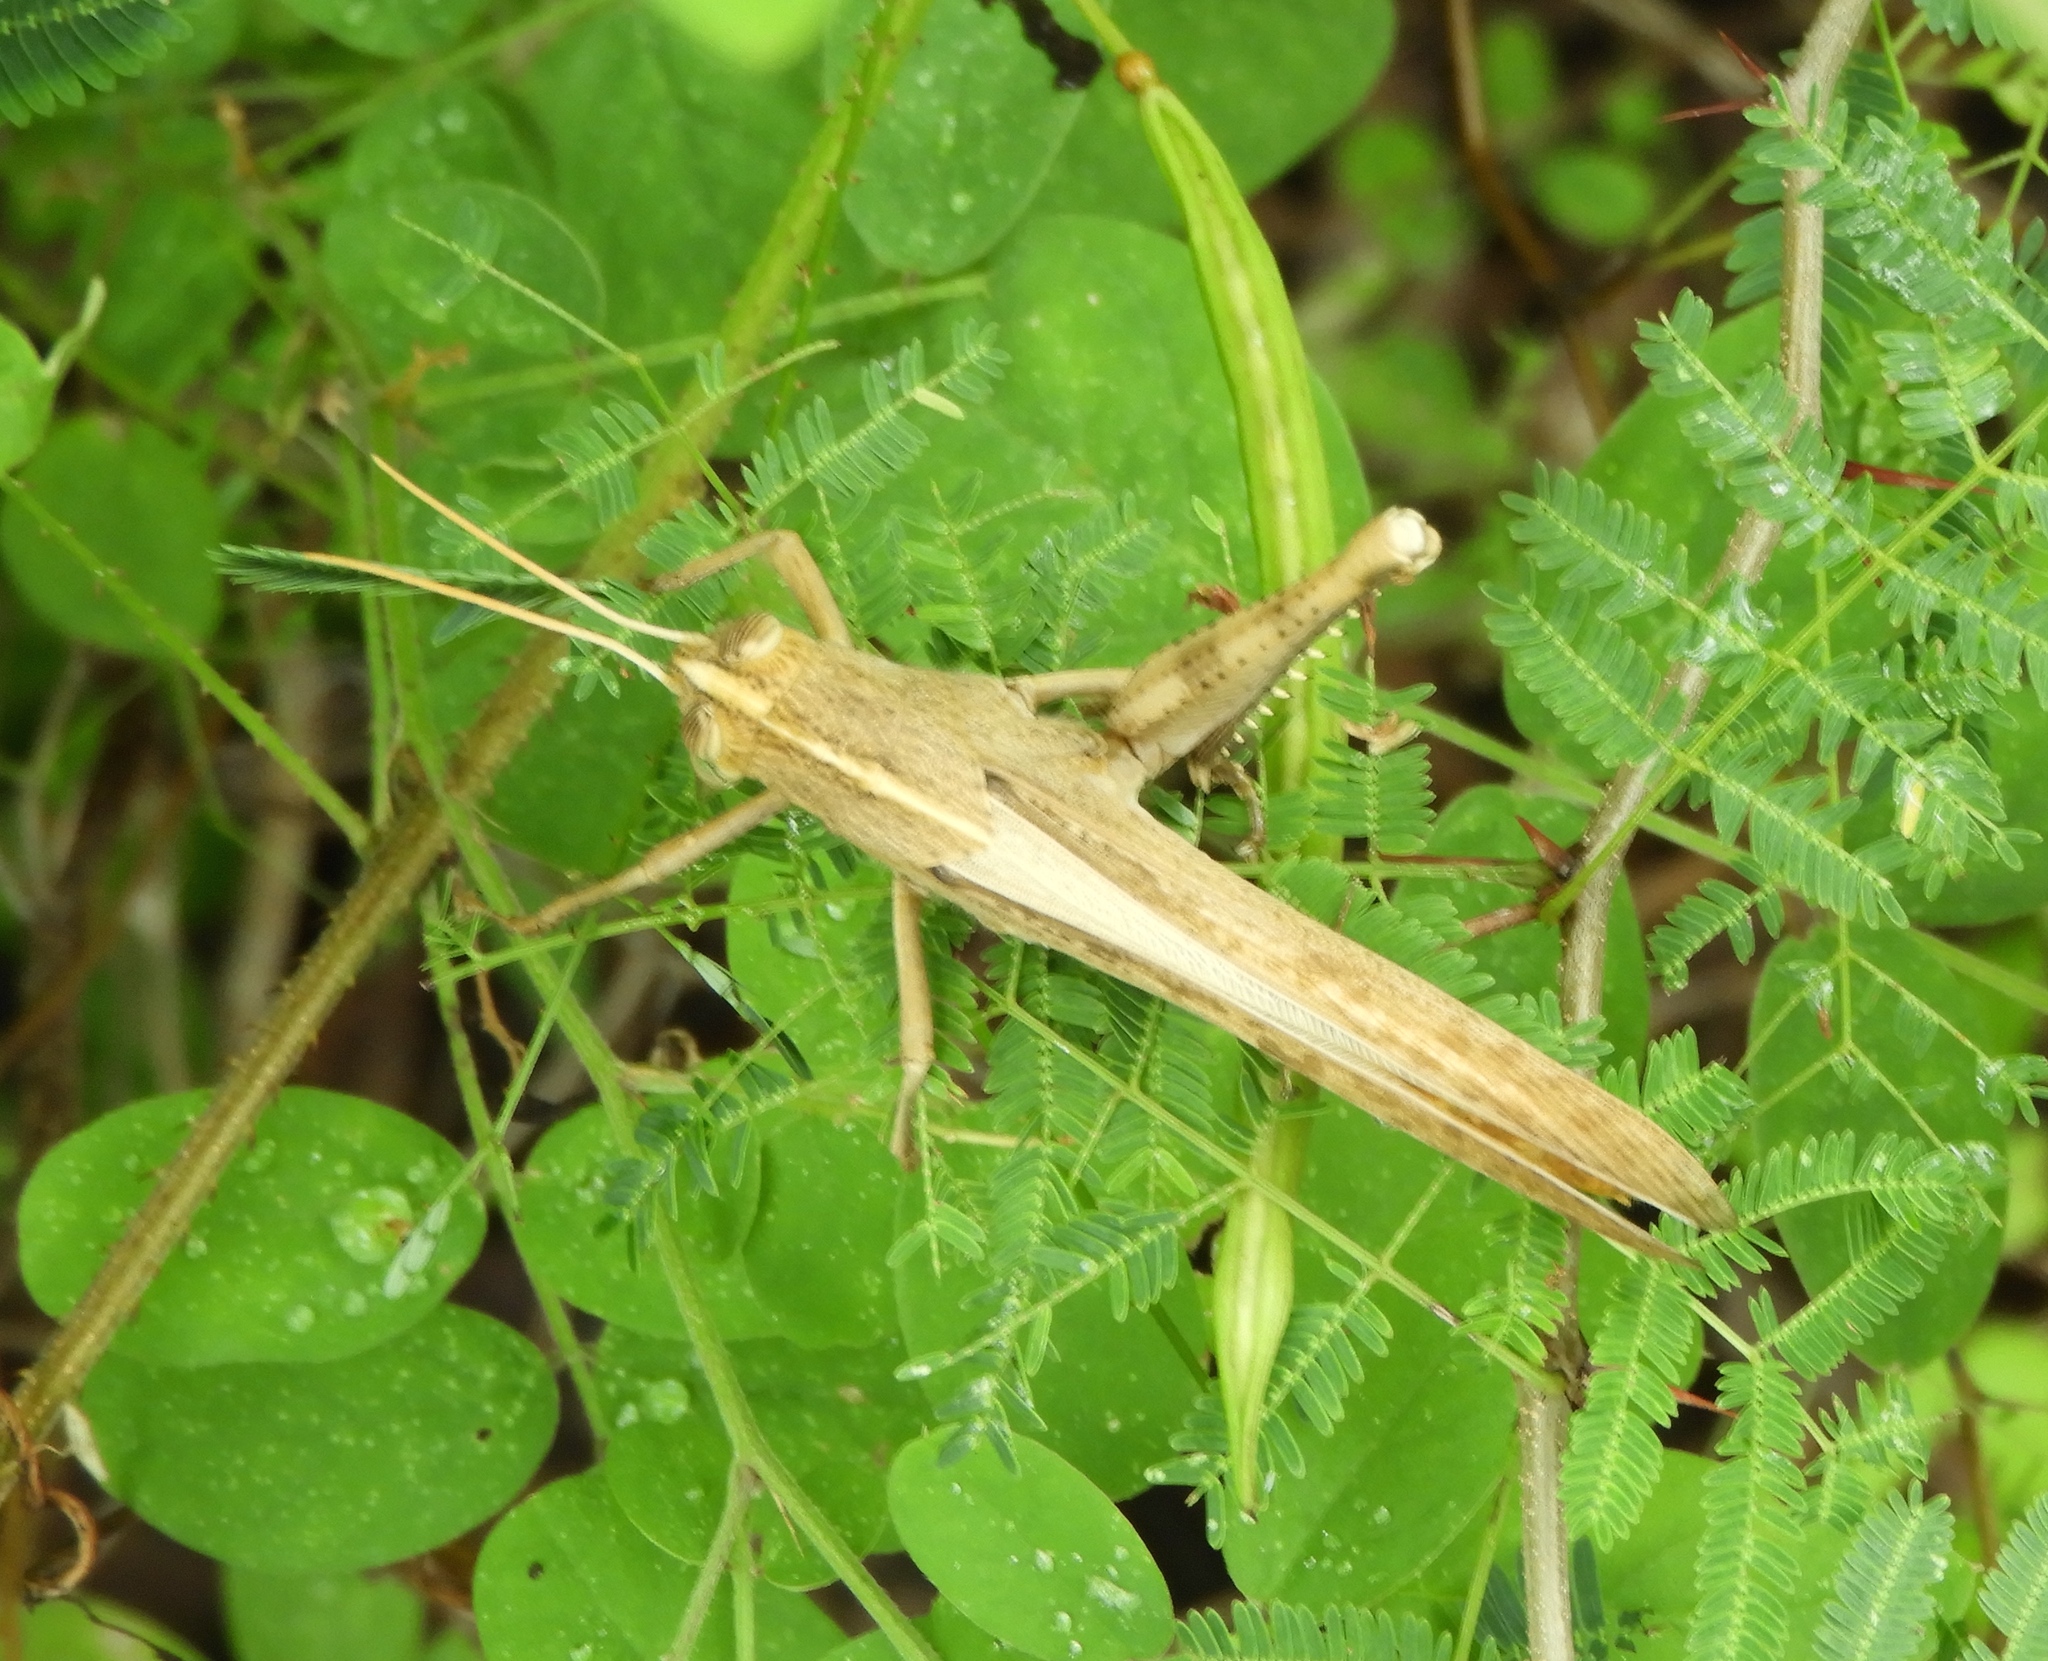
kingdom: Animalia
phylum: Arthropoda
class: Insecta
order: Orthoptera
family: Acrididae
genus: Schistocerca
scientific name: Schistocerca camerata
